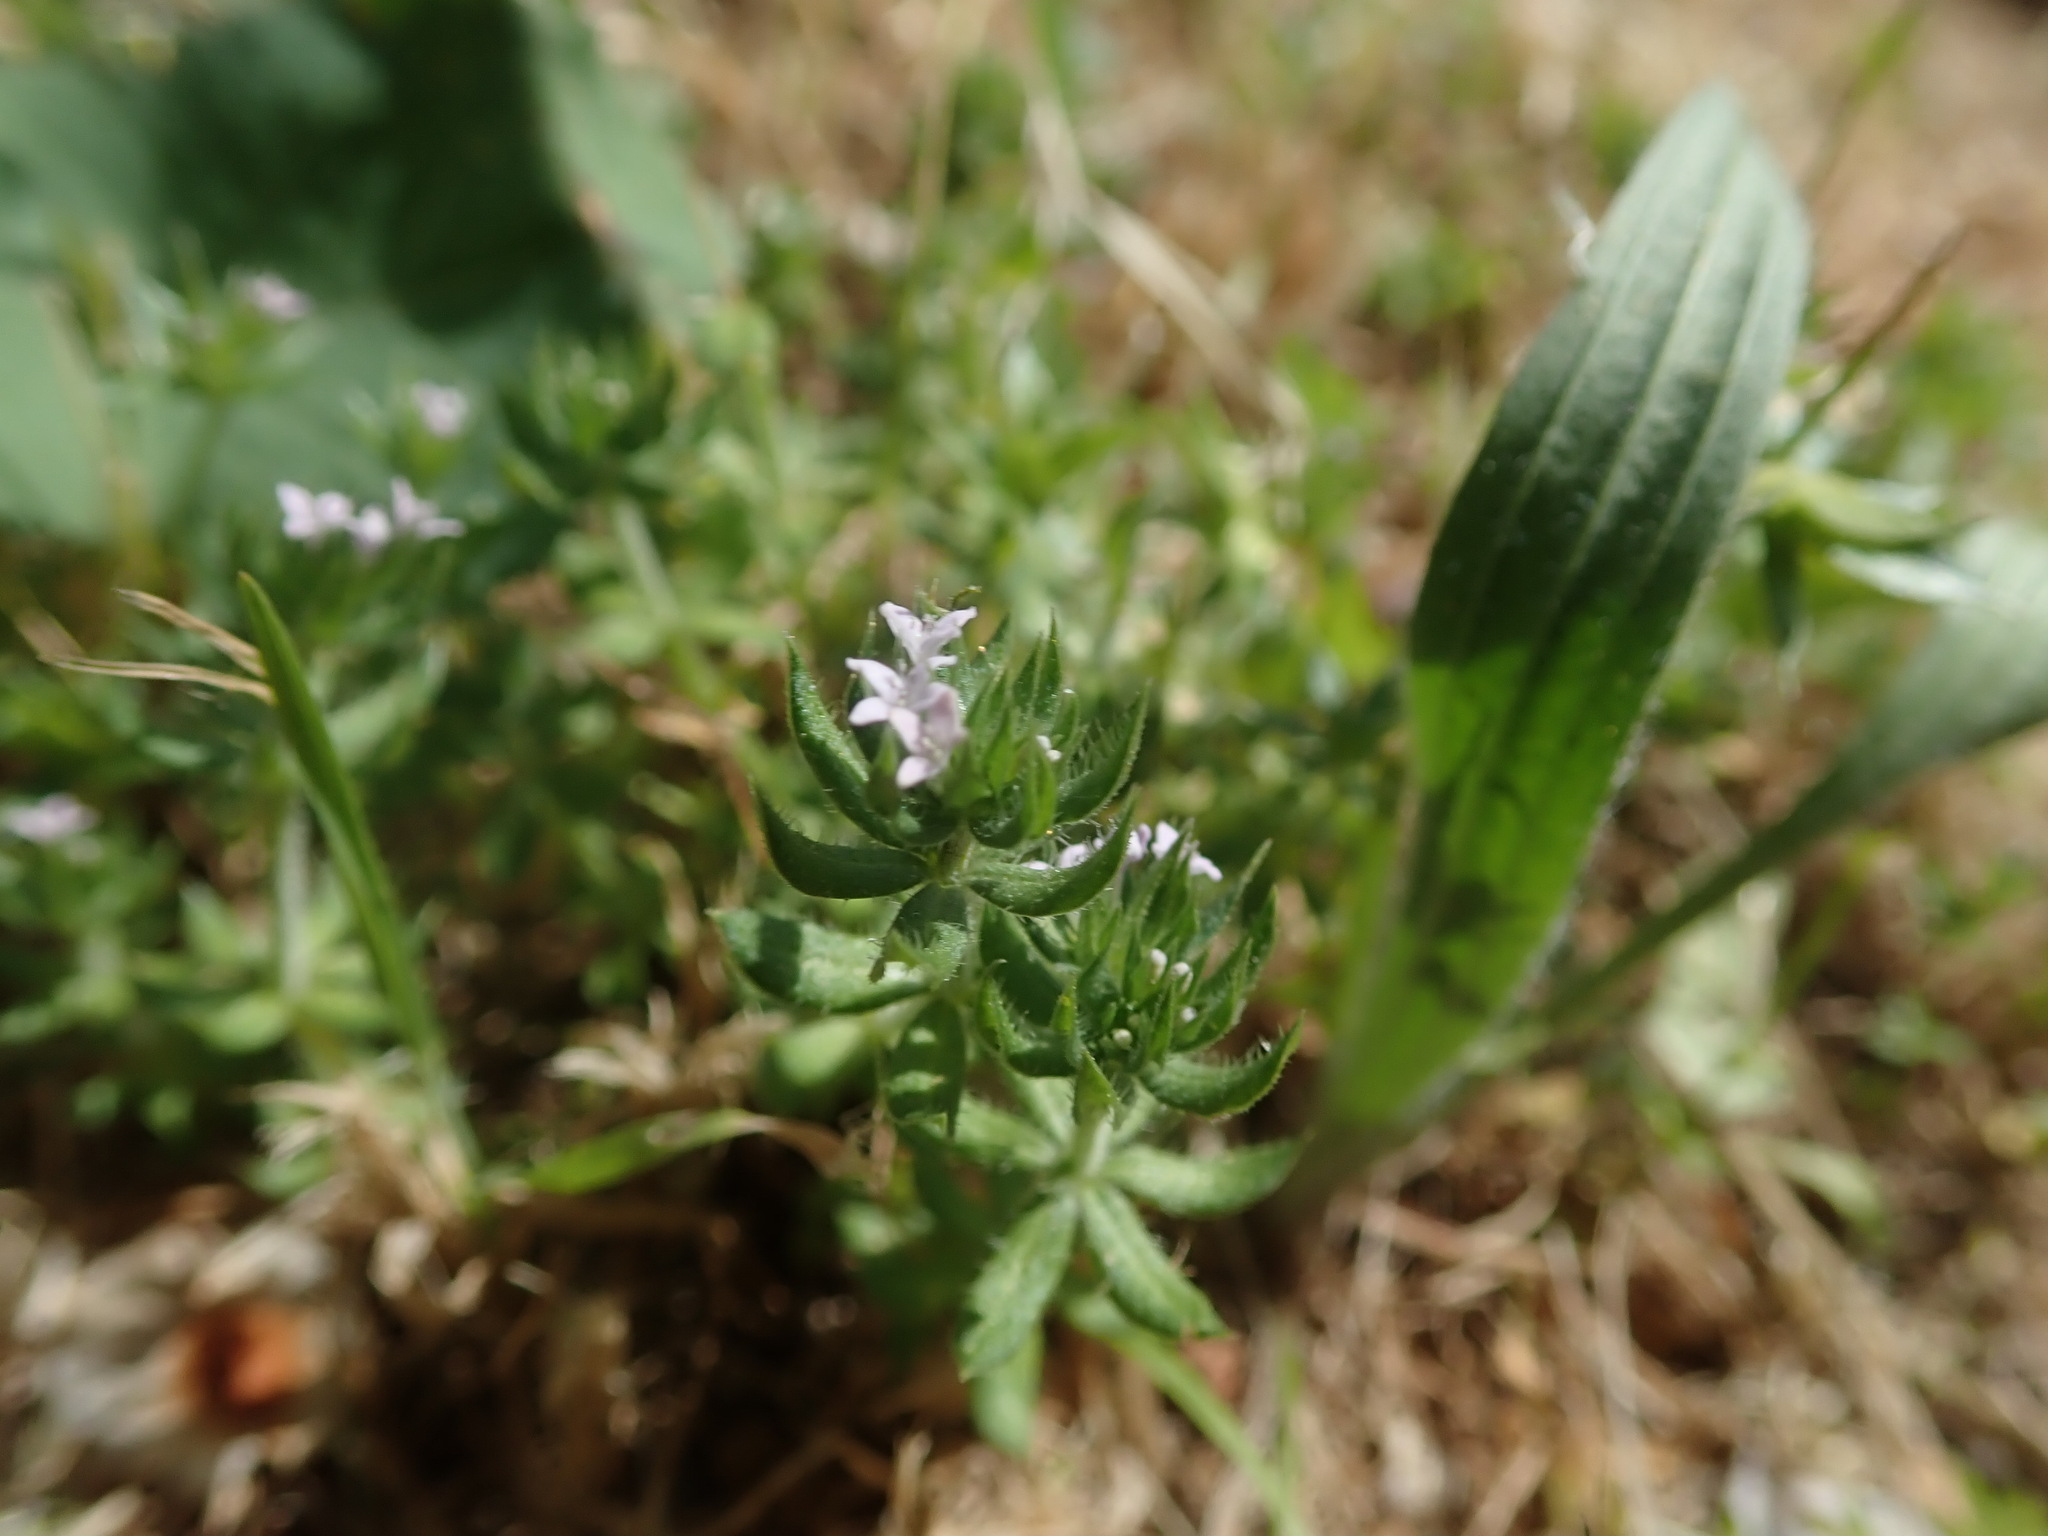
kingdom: Plantae
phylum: Tracheophyta
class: Magnoliopsida
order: Gentianales
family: Rubiaceae
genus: Sherardia
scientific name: Sherardia arvensis
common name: Field madder
